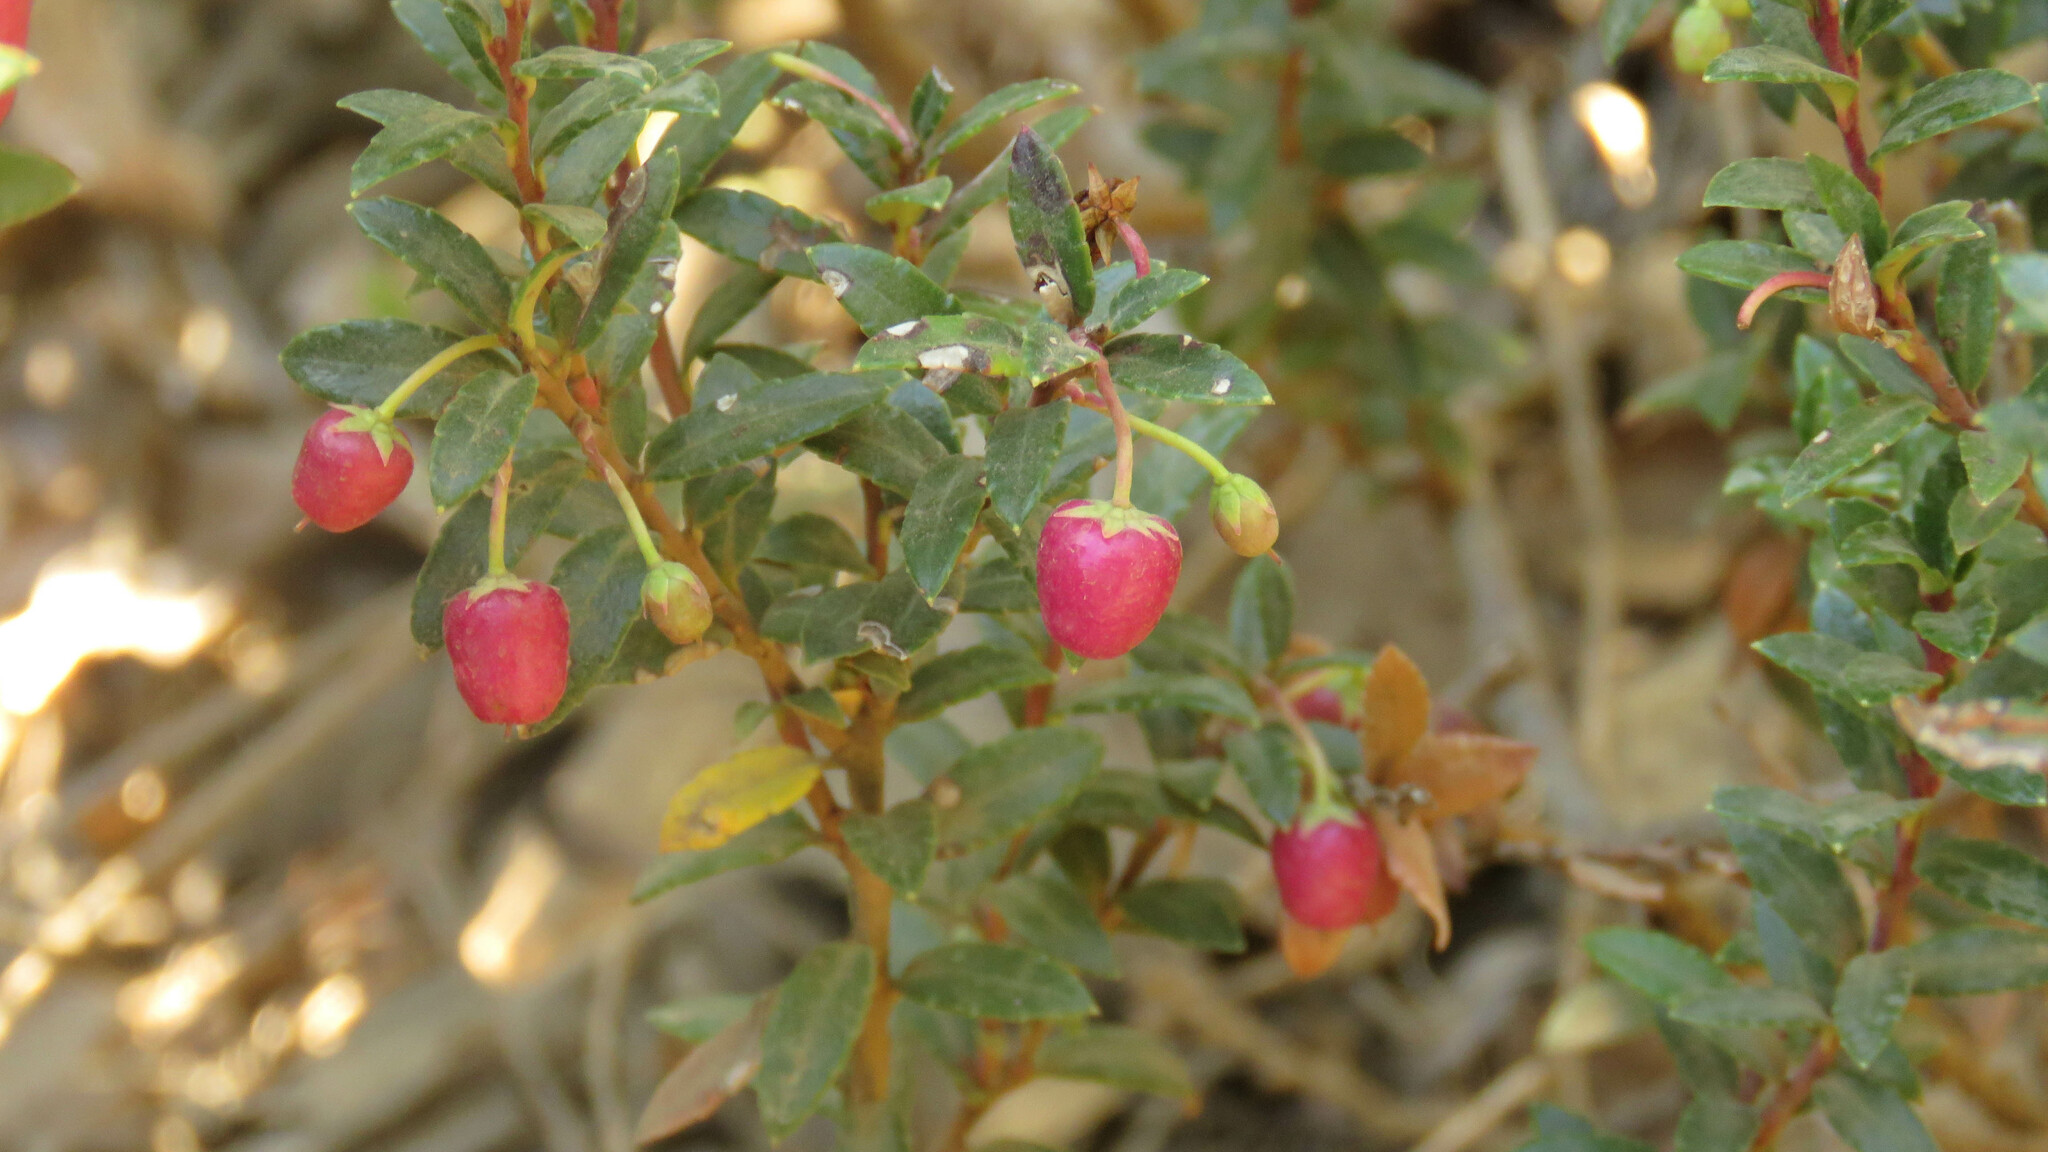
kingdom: Plantae
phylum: Tracheophyta
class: Magnoliopsida
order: Ericales
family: Ericaceae
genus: Gaultheria
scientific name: Gaultheria mucronata
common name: Prickly heath
